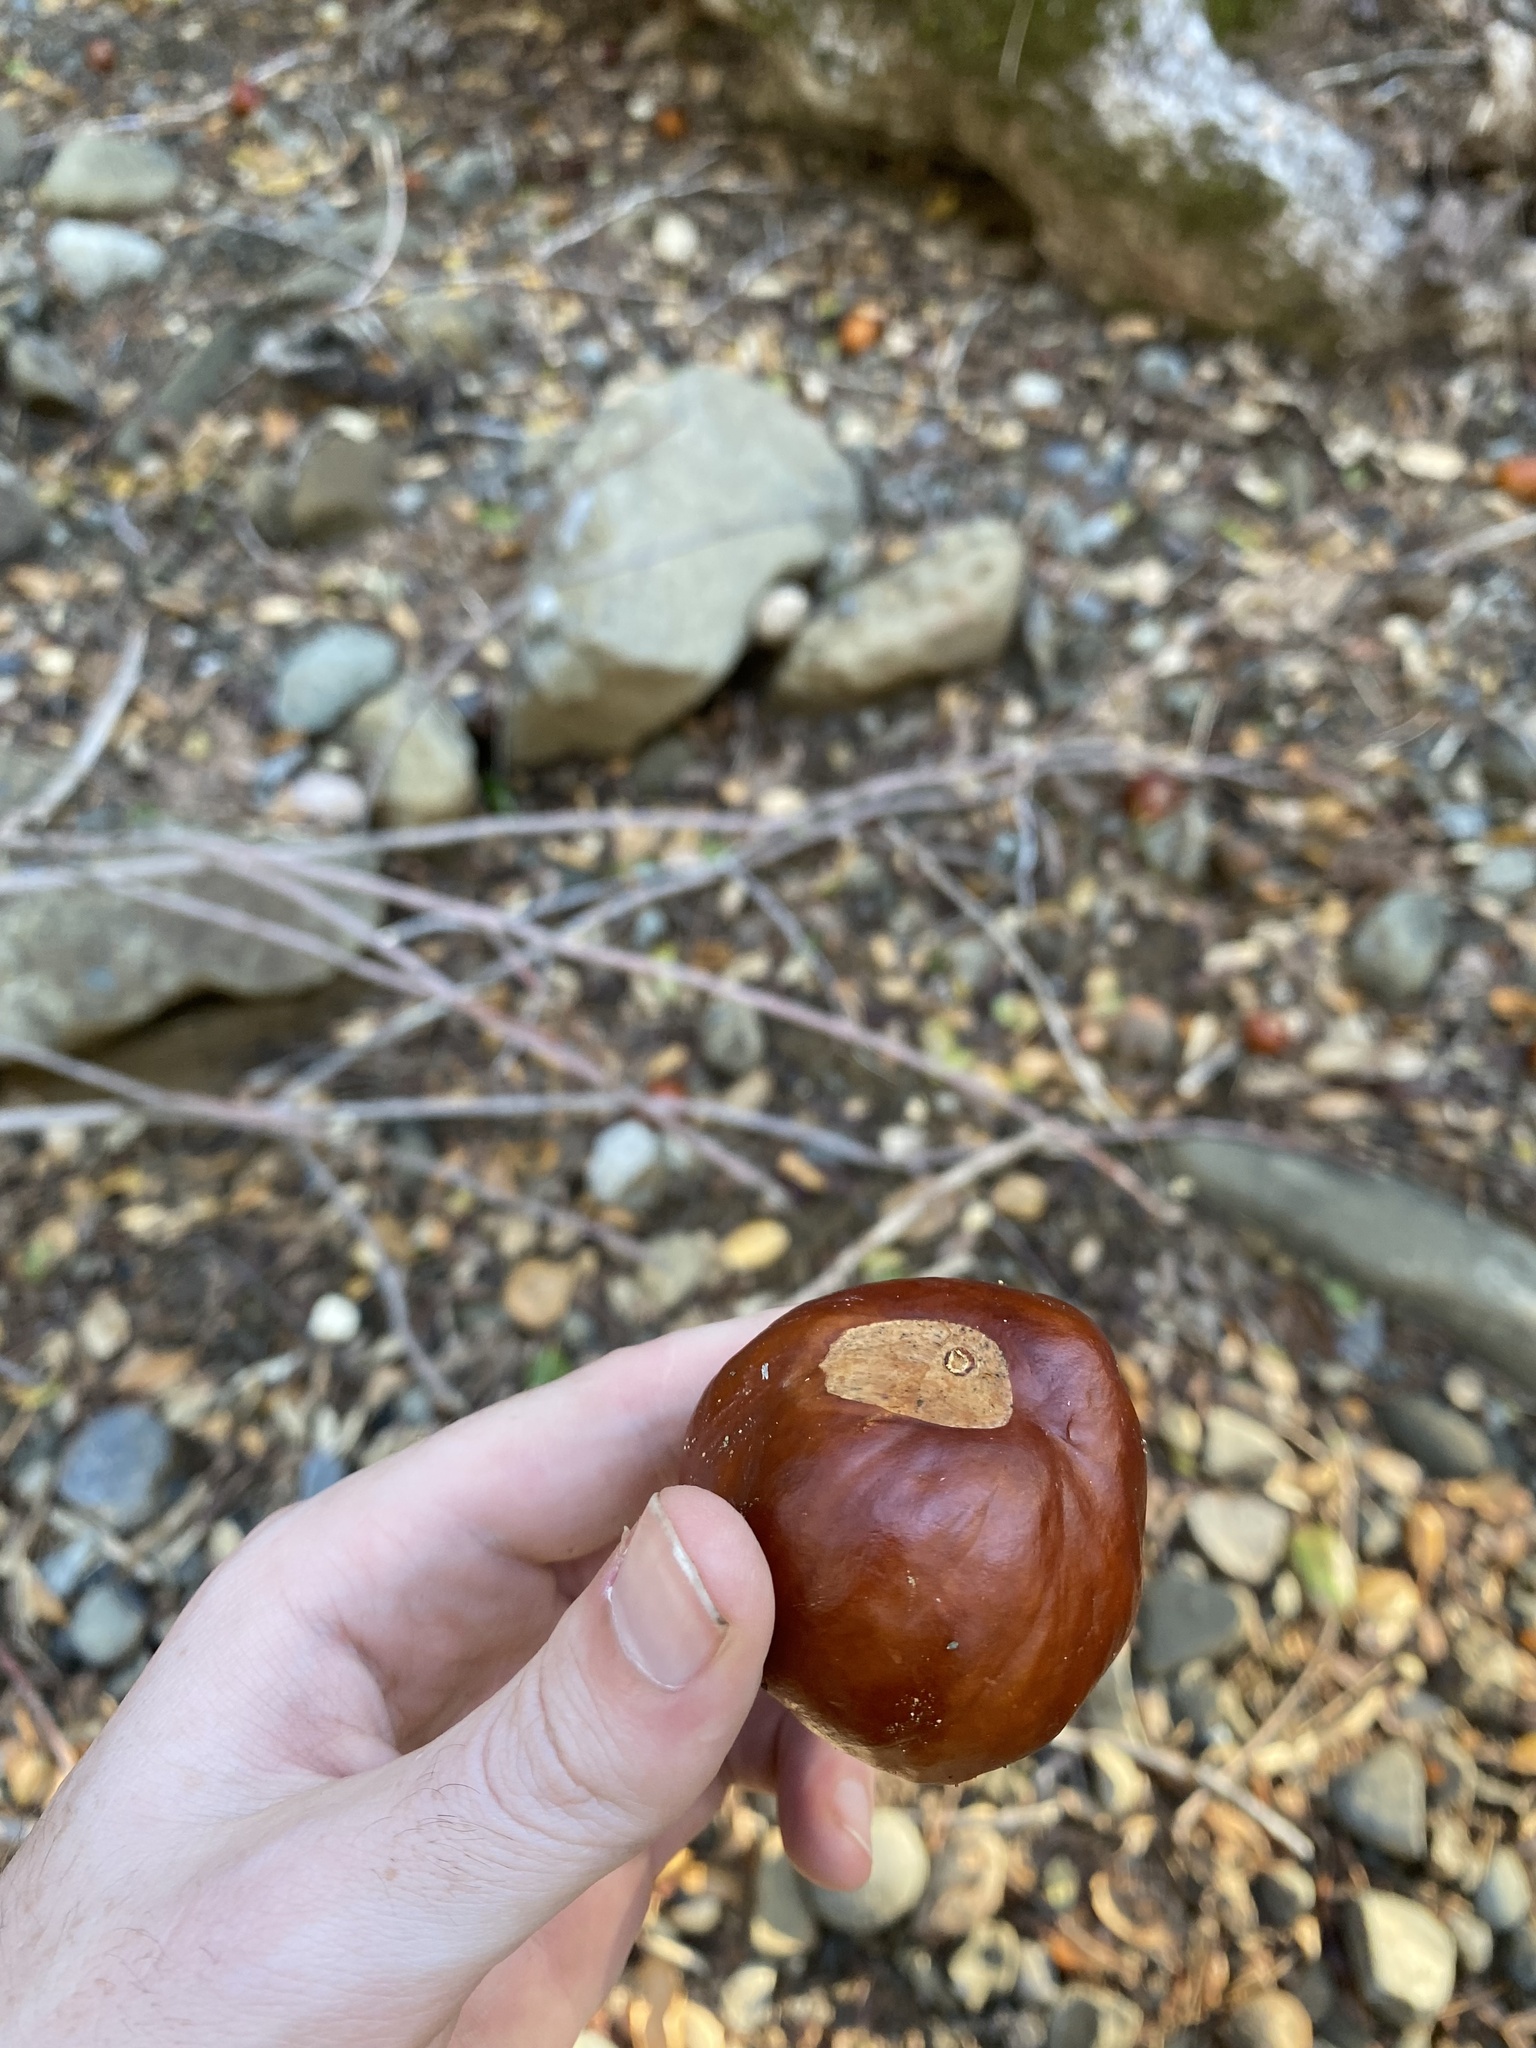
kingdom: Plantae
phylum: Tracheophyta
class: Magnoliopsida
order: Sapindales
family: Sapindaceae
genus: Aesculus
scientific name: Aesculus californica
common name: California buckeye
